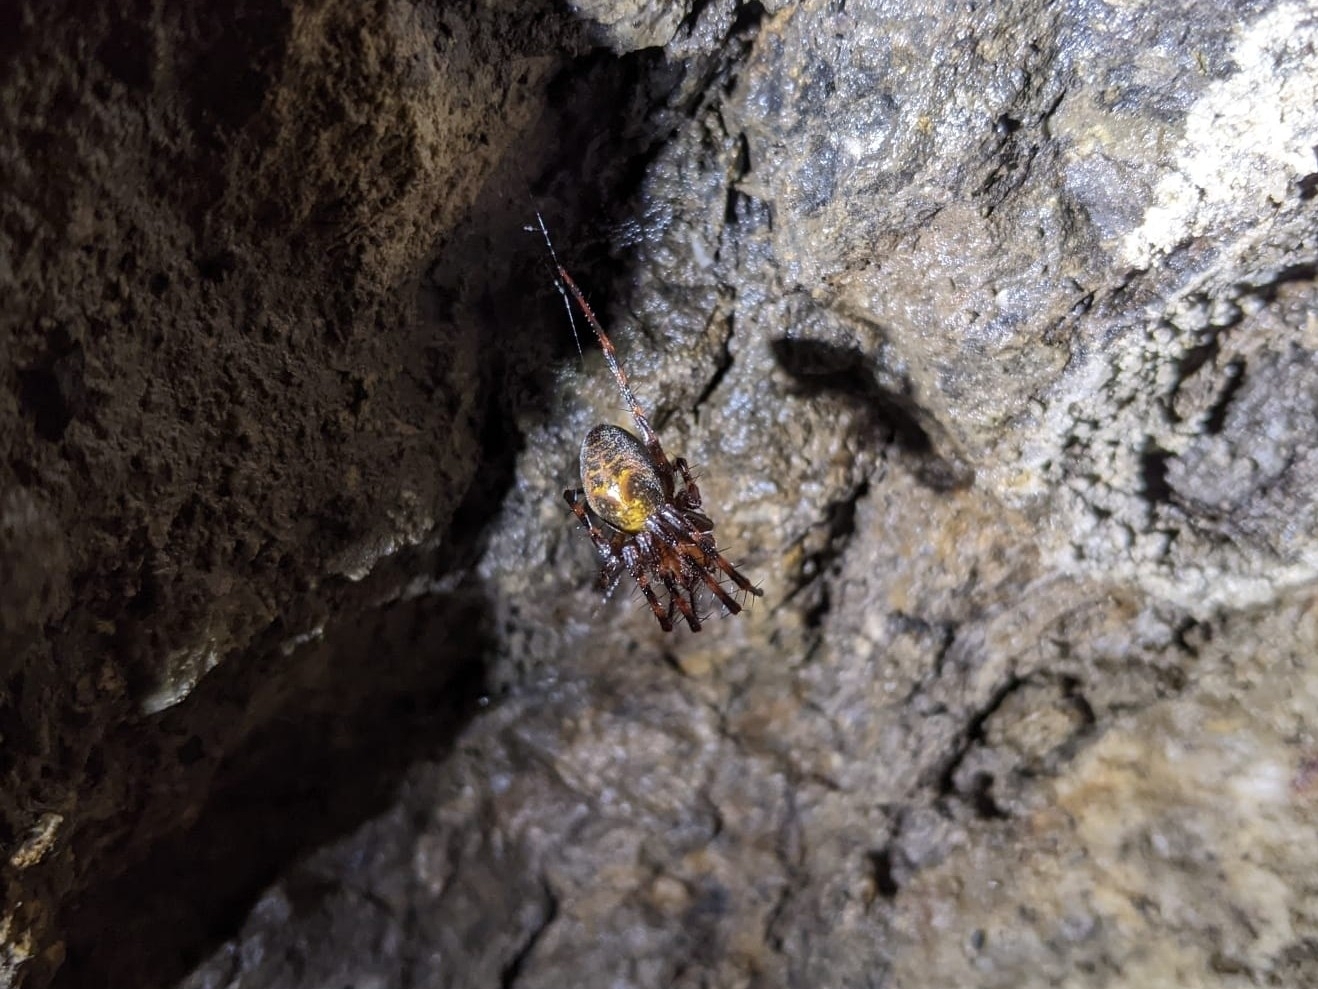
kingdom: Animalia
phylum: Arthropoda
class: Arachnida
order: Araneae
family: Tetragnathidae
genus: Meta
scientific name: Meta menardi
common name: Cave spider
